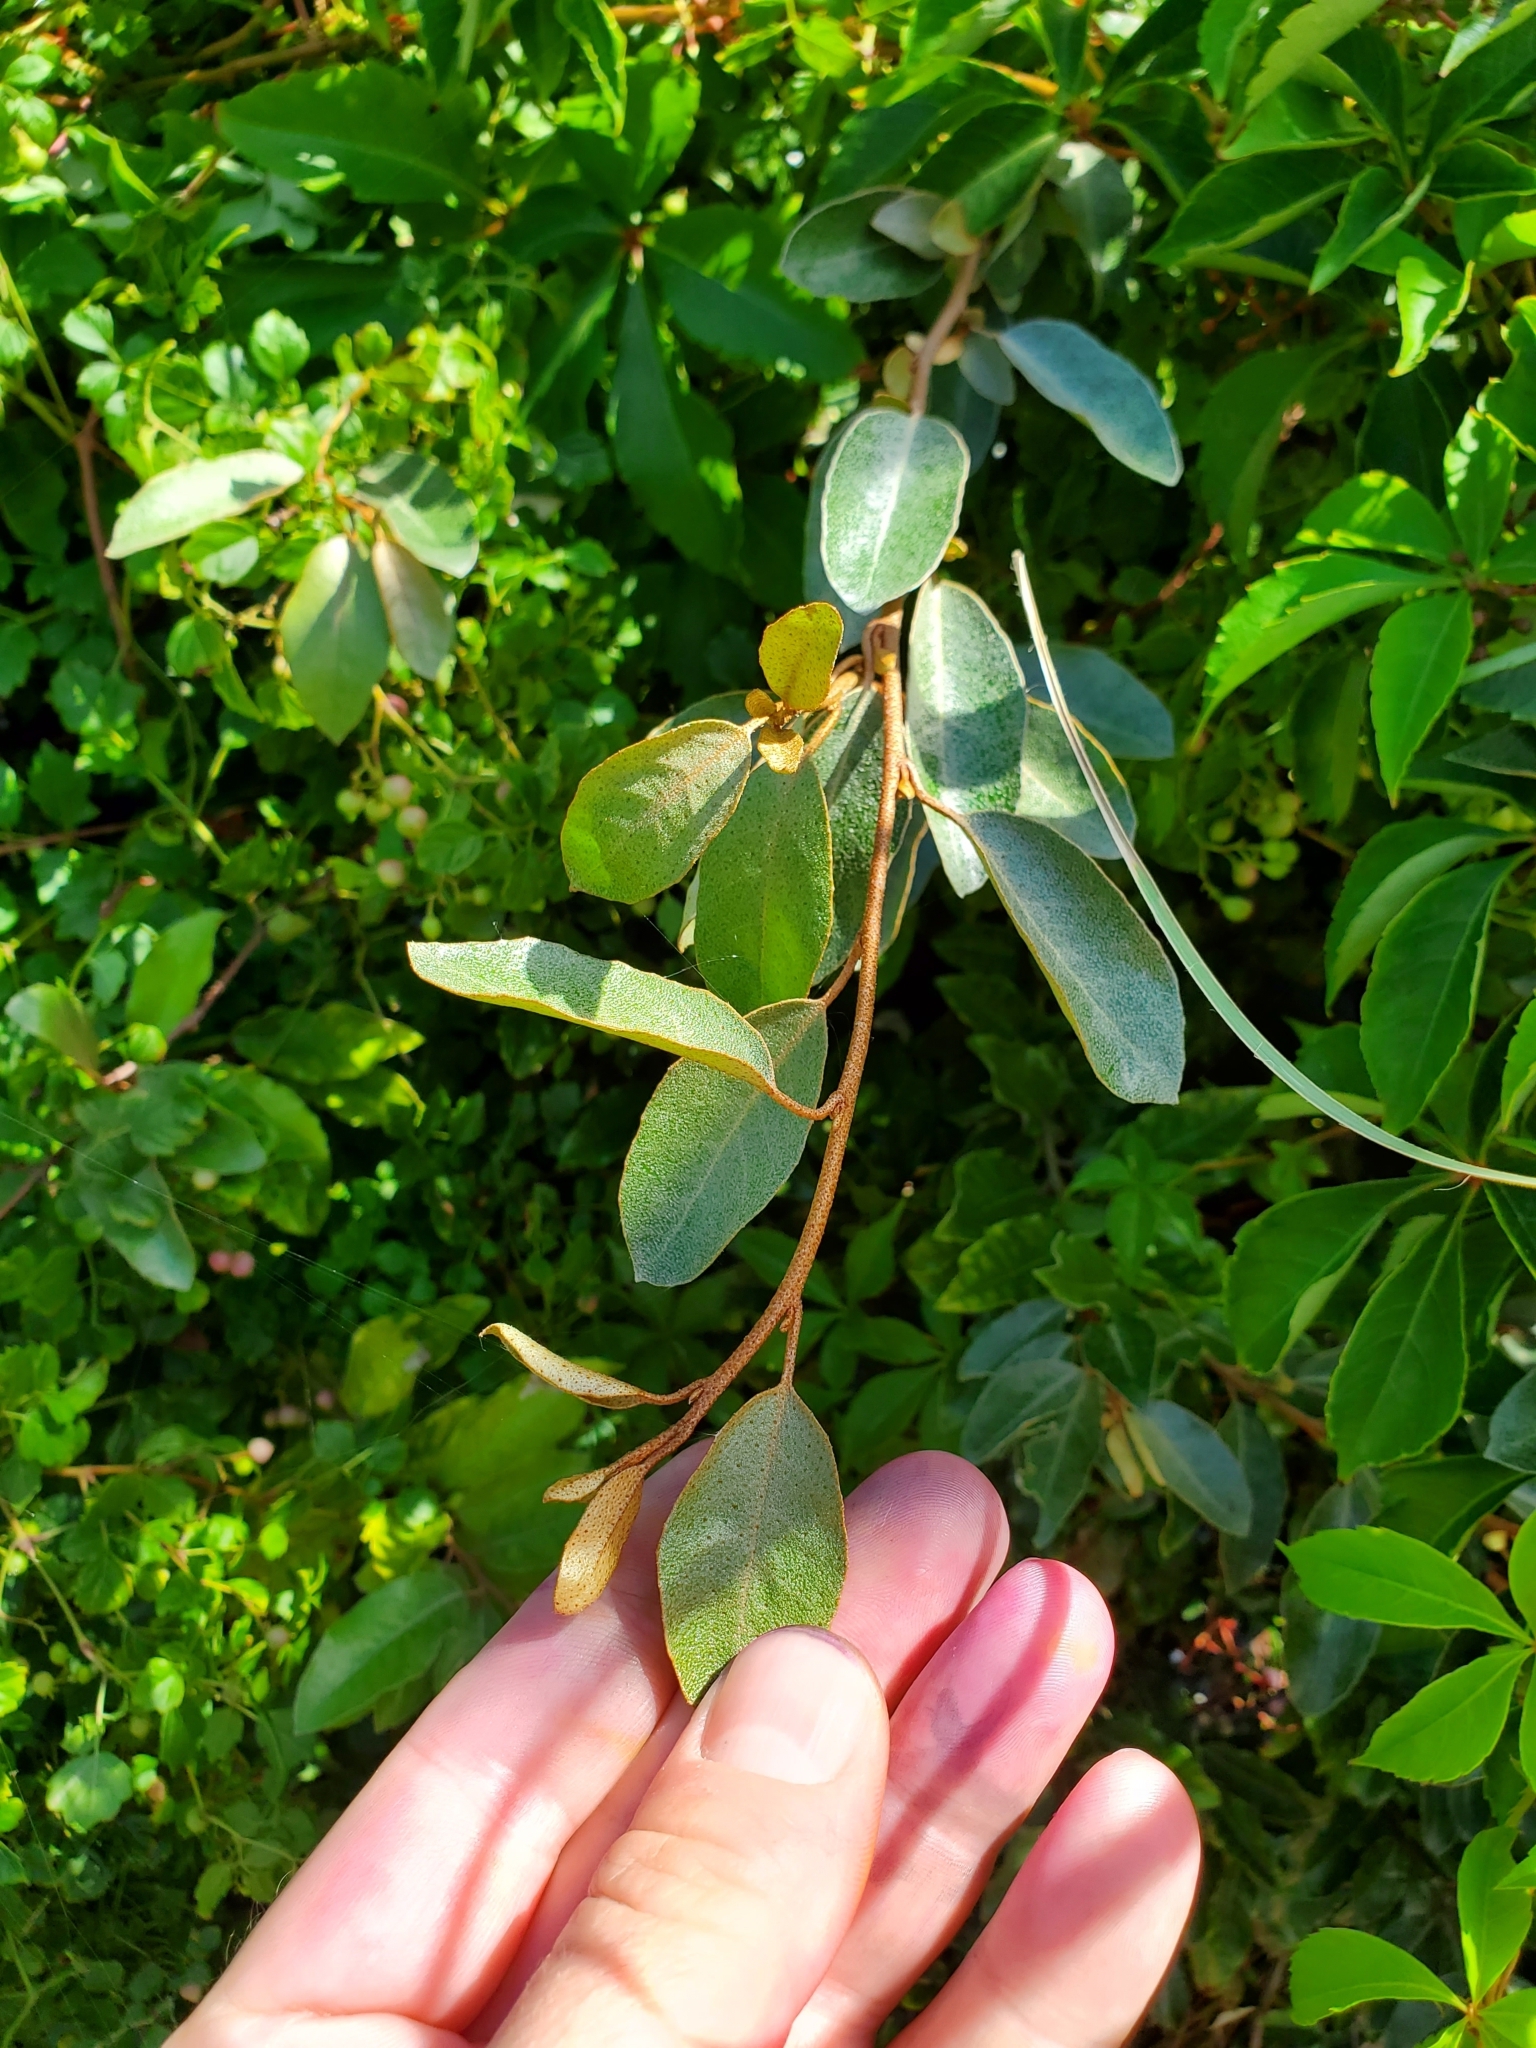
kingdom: Plantae
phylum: Tracheophyta
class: Magnoliopsida
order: Rosales
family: Elaeagnaceae
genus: Elaeagnus
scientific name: Elaeagnus pungens
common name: Spiny oleaster
